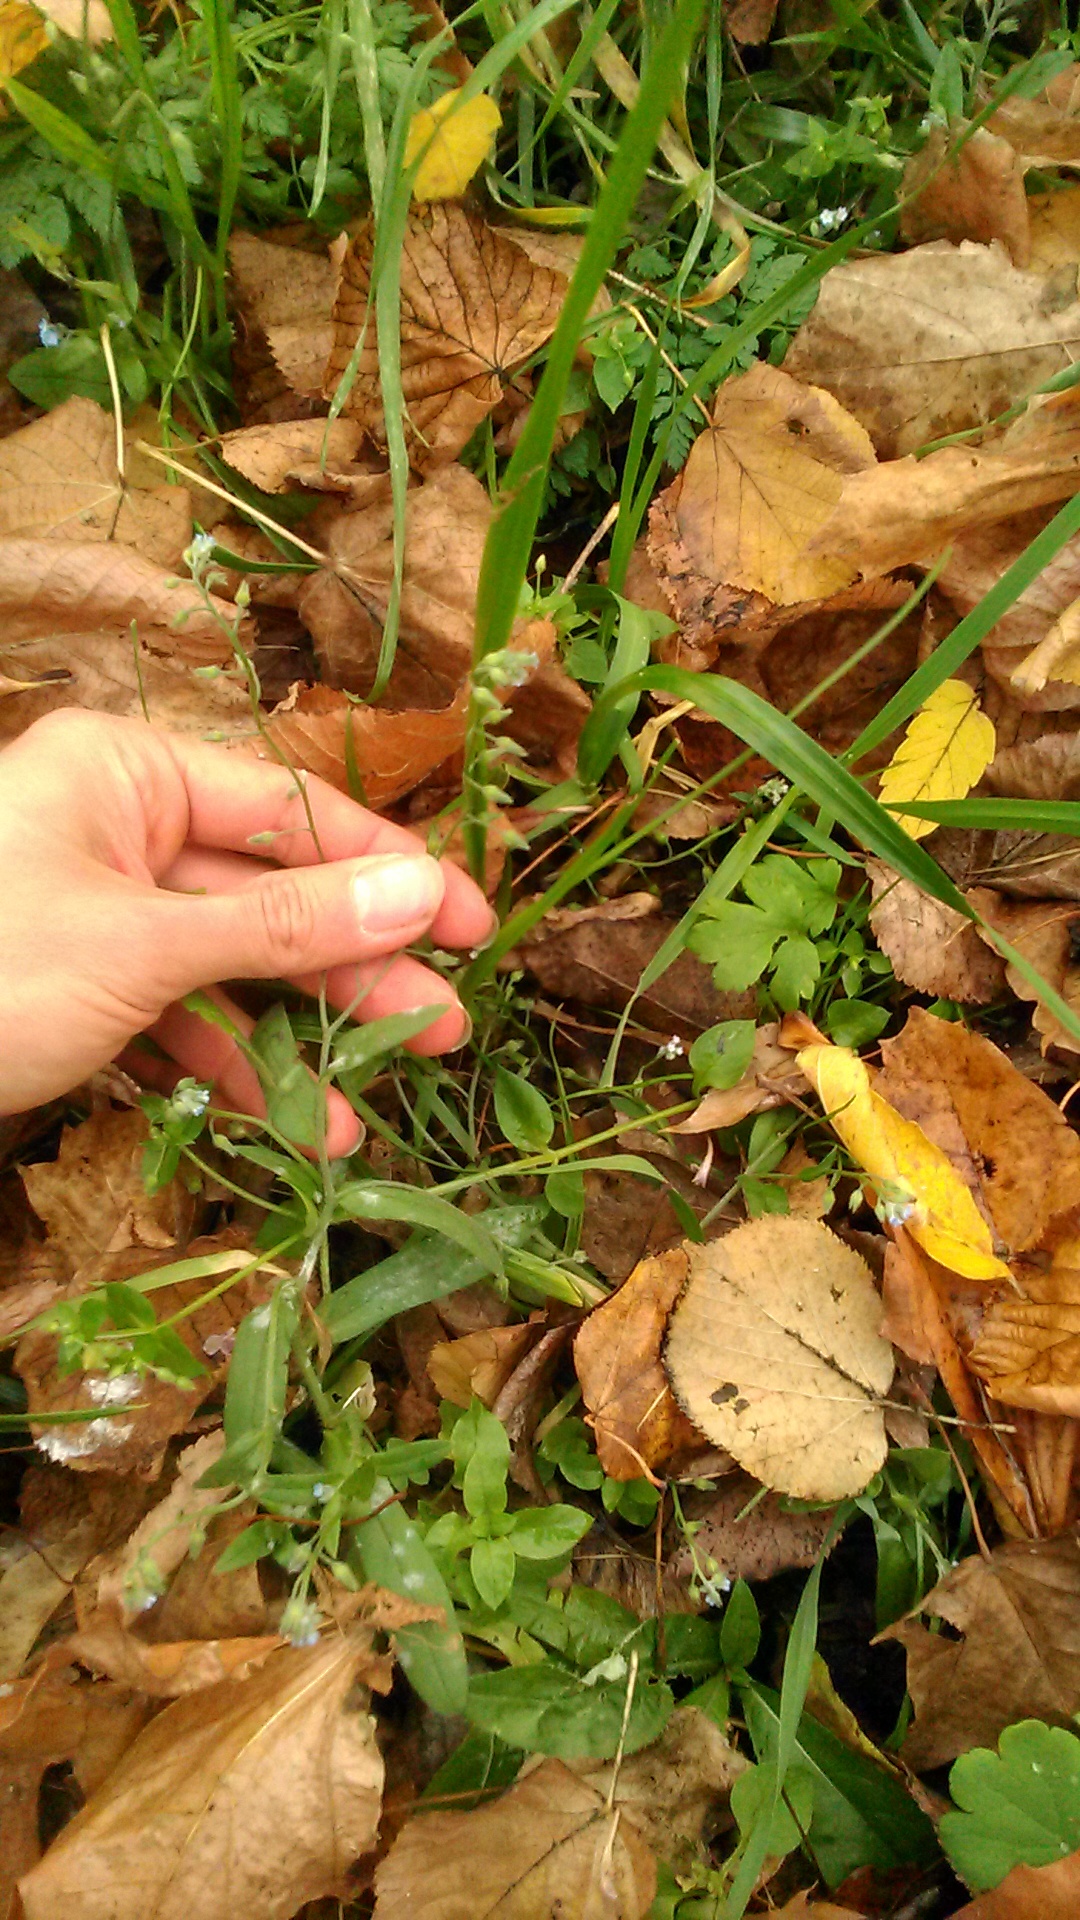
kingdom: Plantae
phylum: Tracheophyta
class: Magnoliopsida
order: Boraginales
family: Boraginaceae
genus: Myosotis
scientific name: Myosotis arvensis
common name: Field forget-me-not
